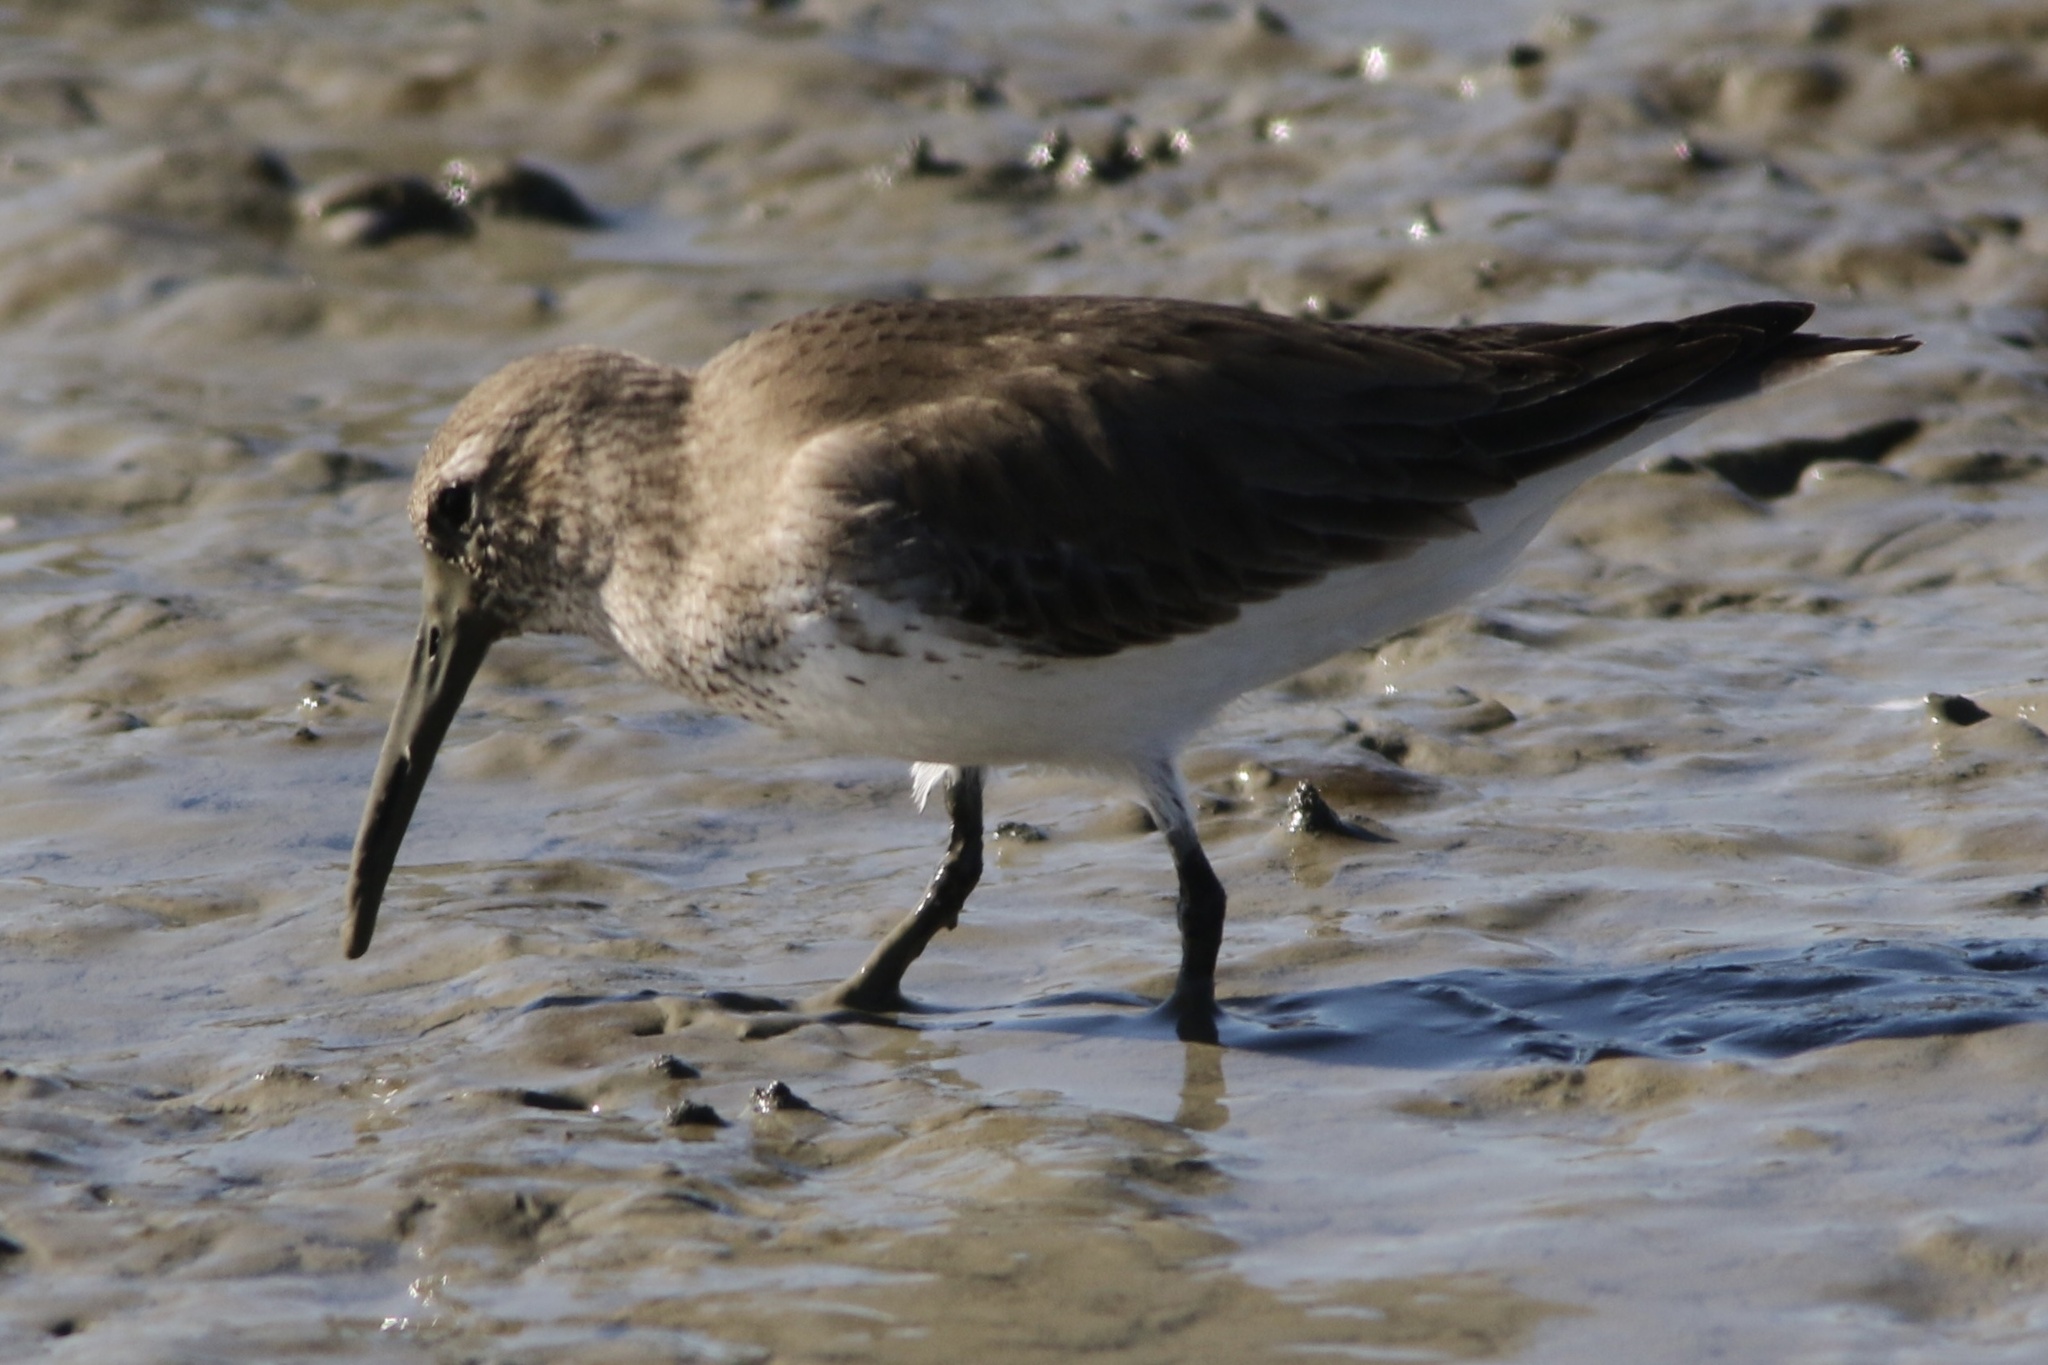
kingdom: Animalia
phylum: Chordata
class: Aves
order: Charadriiformes
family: Scolopacidae
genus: Calidris
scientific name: Calidris alpina
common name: Dunlin
